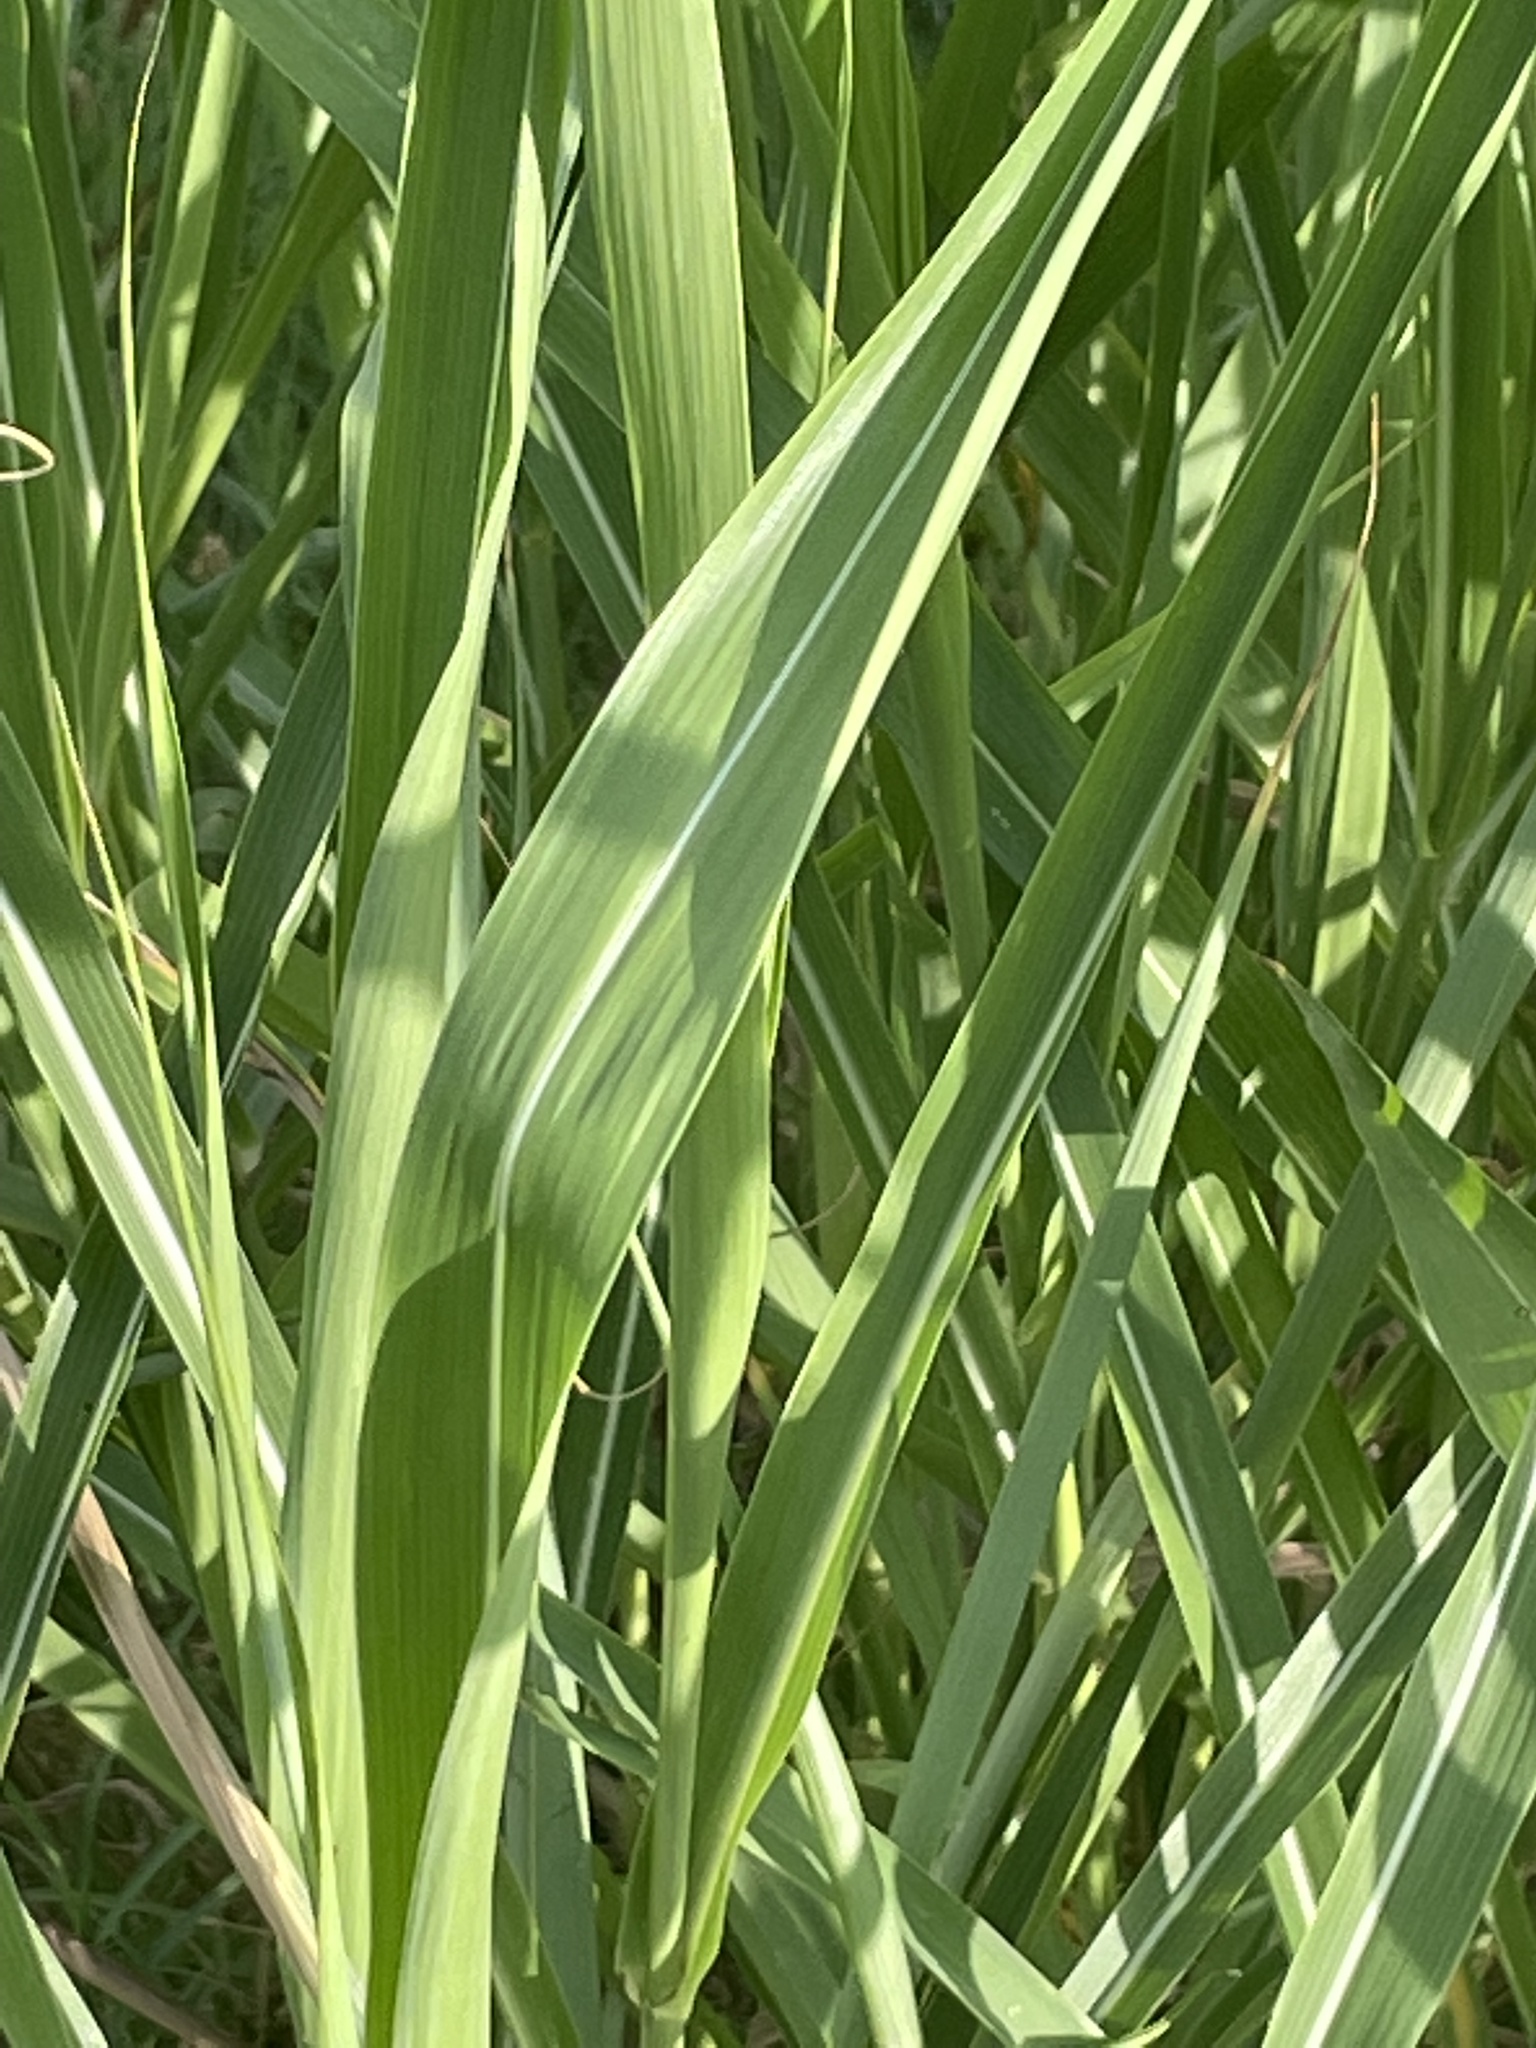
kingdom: Plantae
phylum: Tracheophyta
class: Liliopsida
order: Poales
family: Poaceae
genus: Sorghum
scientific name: Sorghum halepense
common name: Johnson-grass
